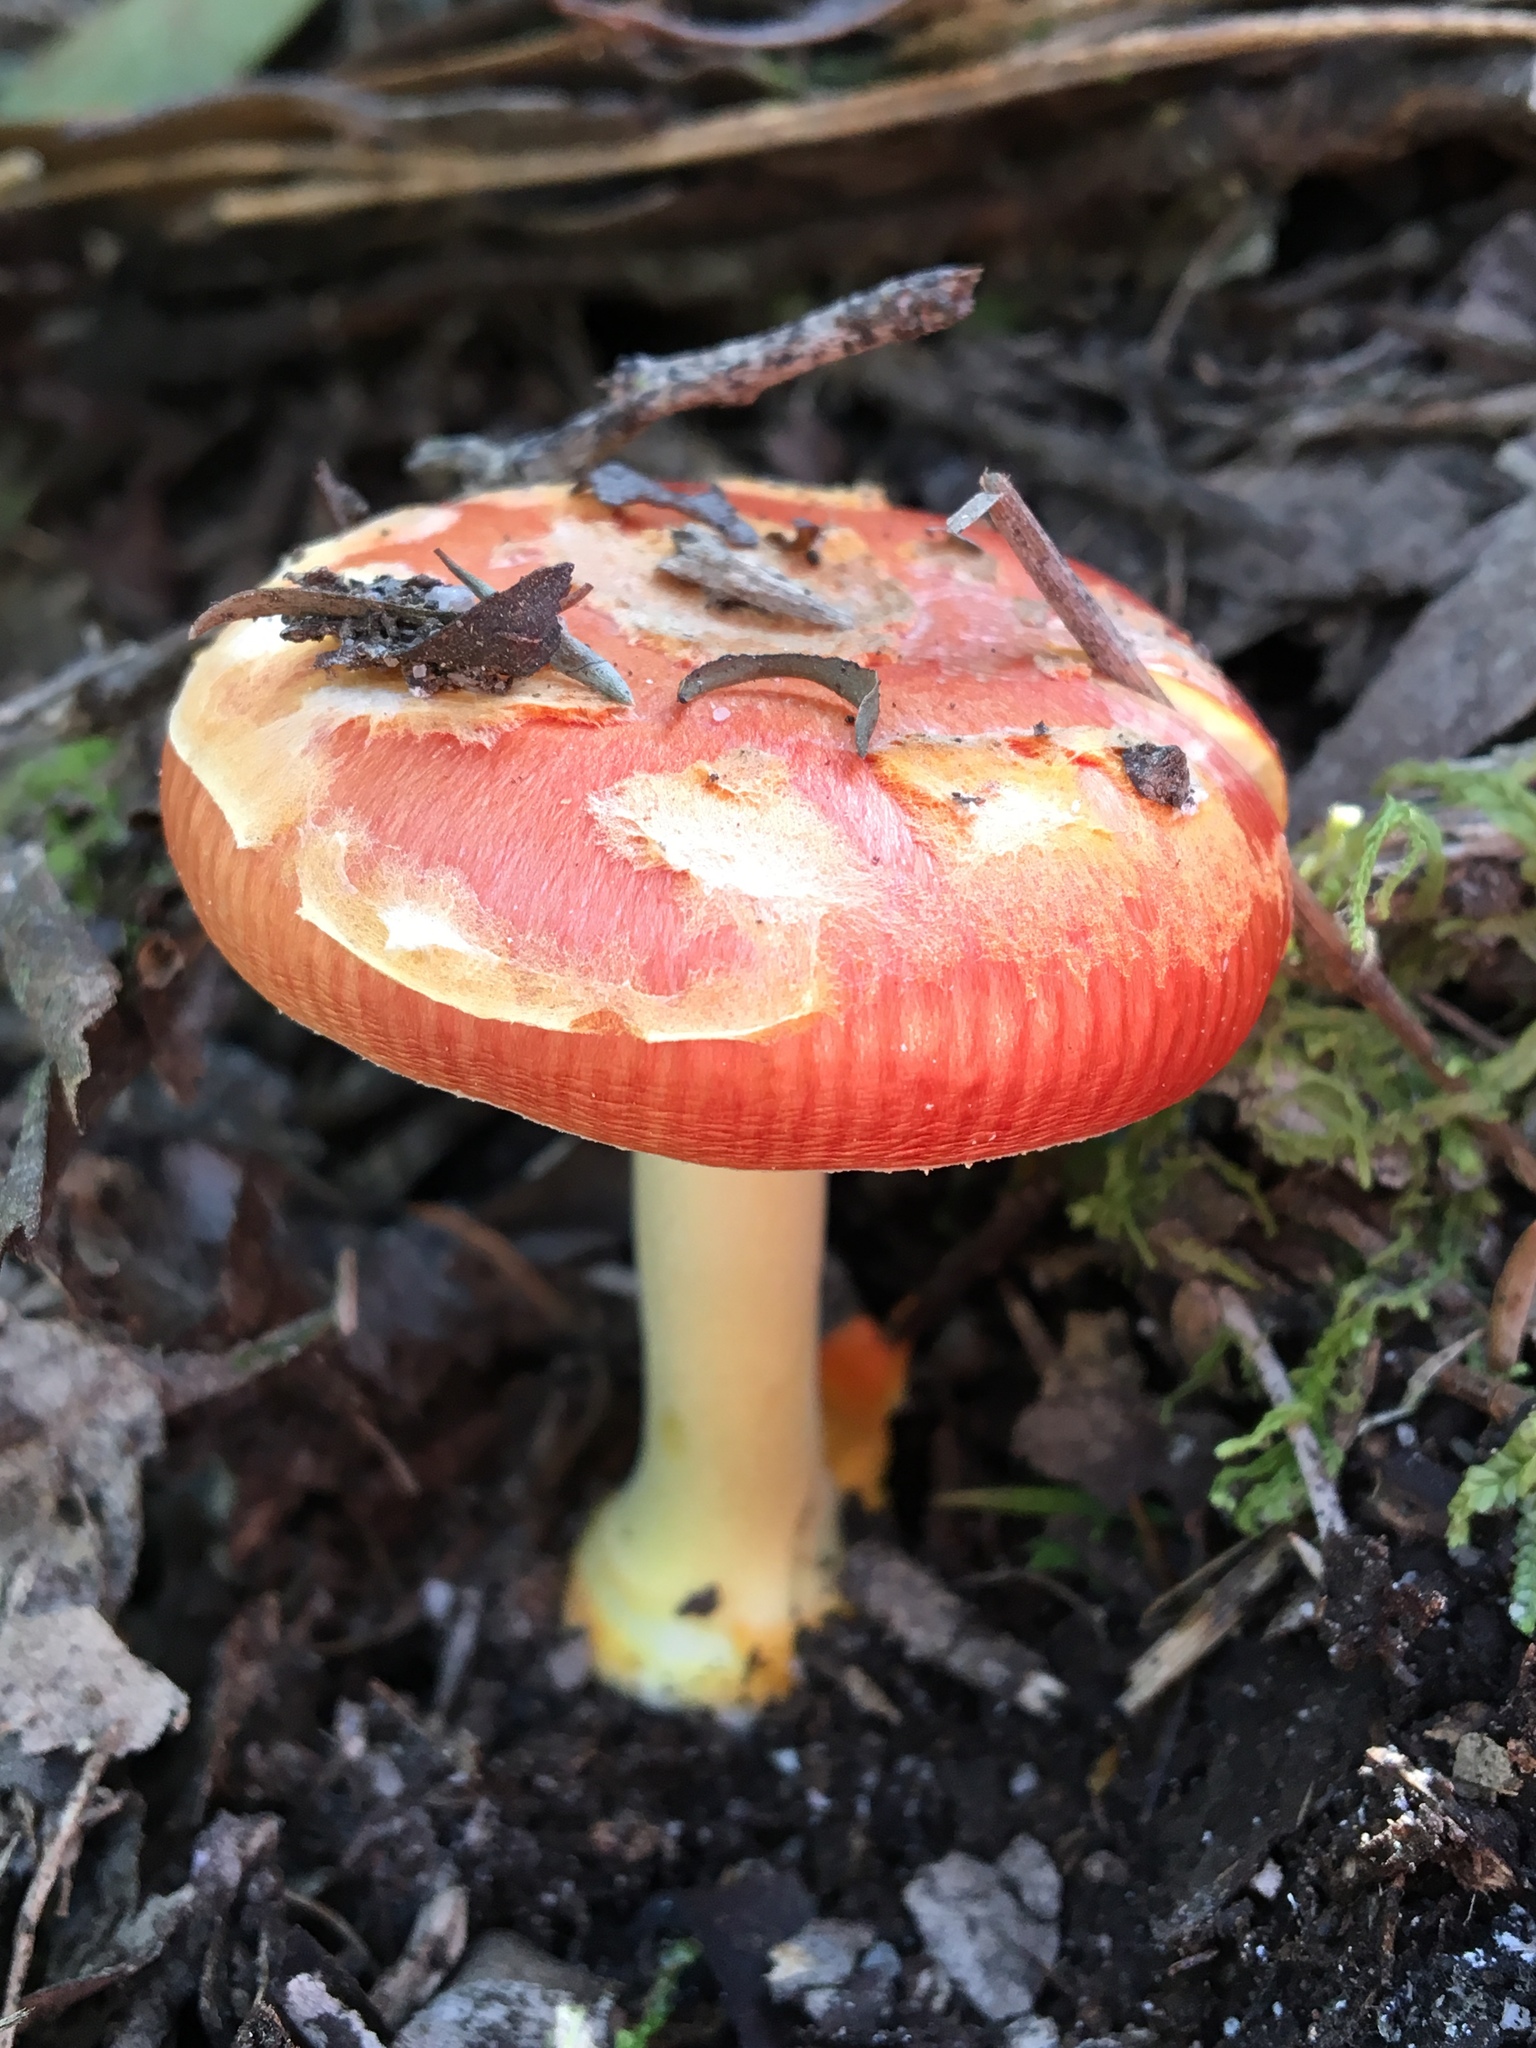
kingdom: Fungi
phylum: Basidiomycota
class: Agaricomycetes
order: Agaricales
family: Amanitaceae
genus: Amanita
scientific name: Amanita xanthocephala
